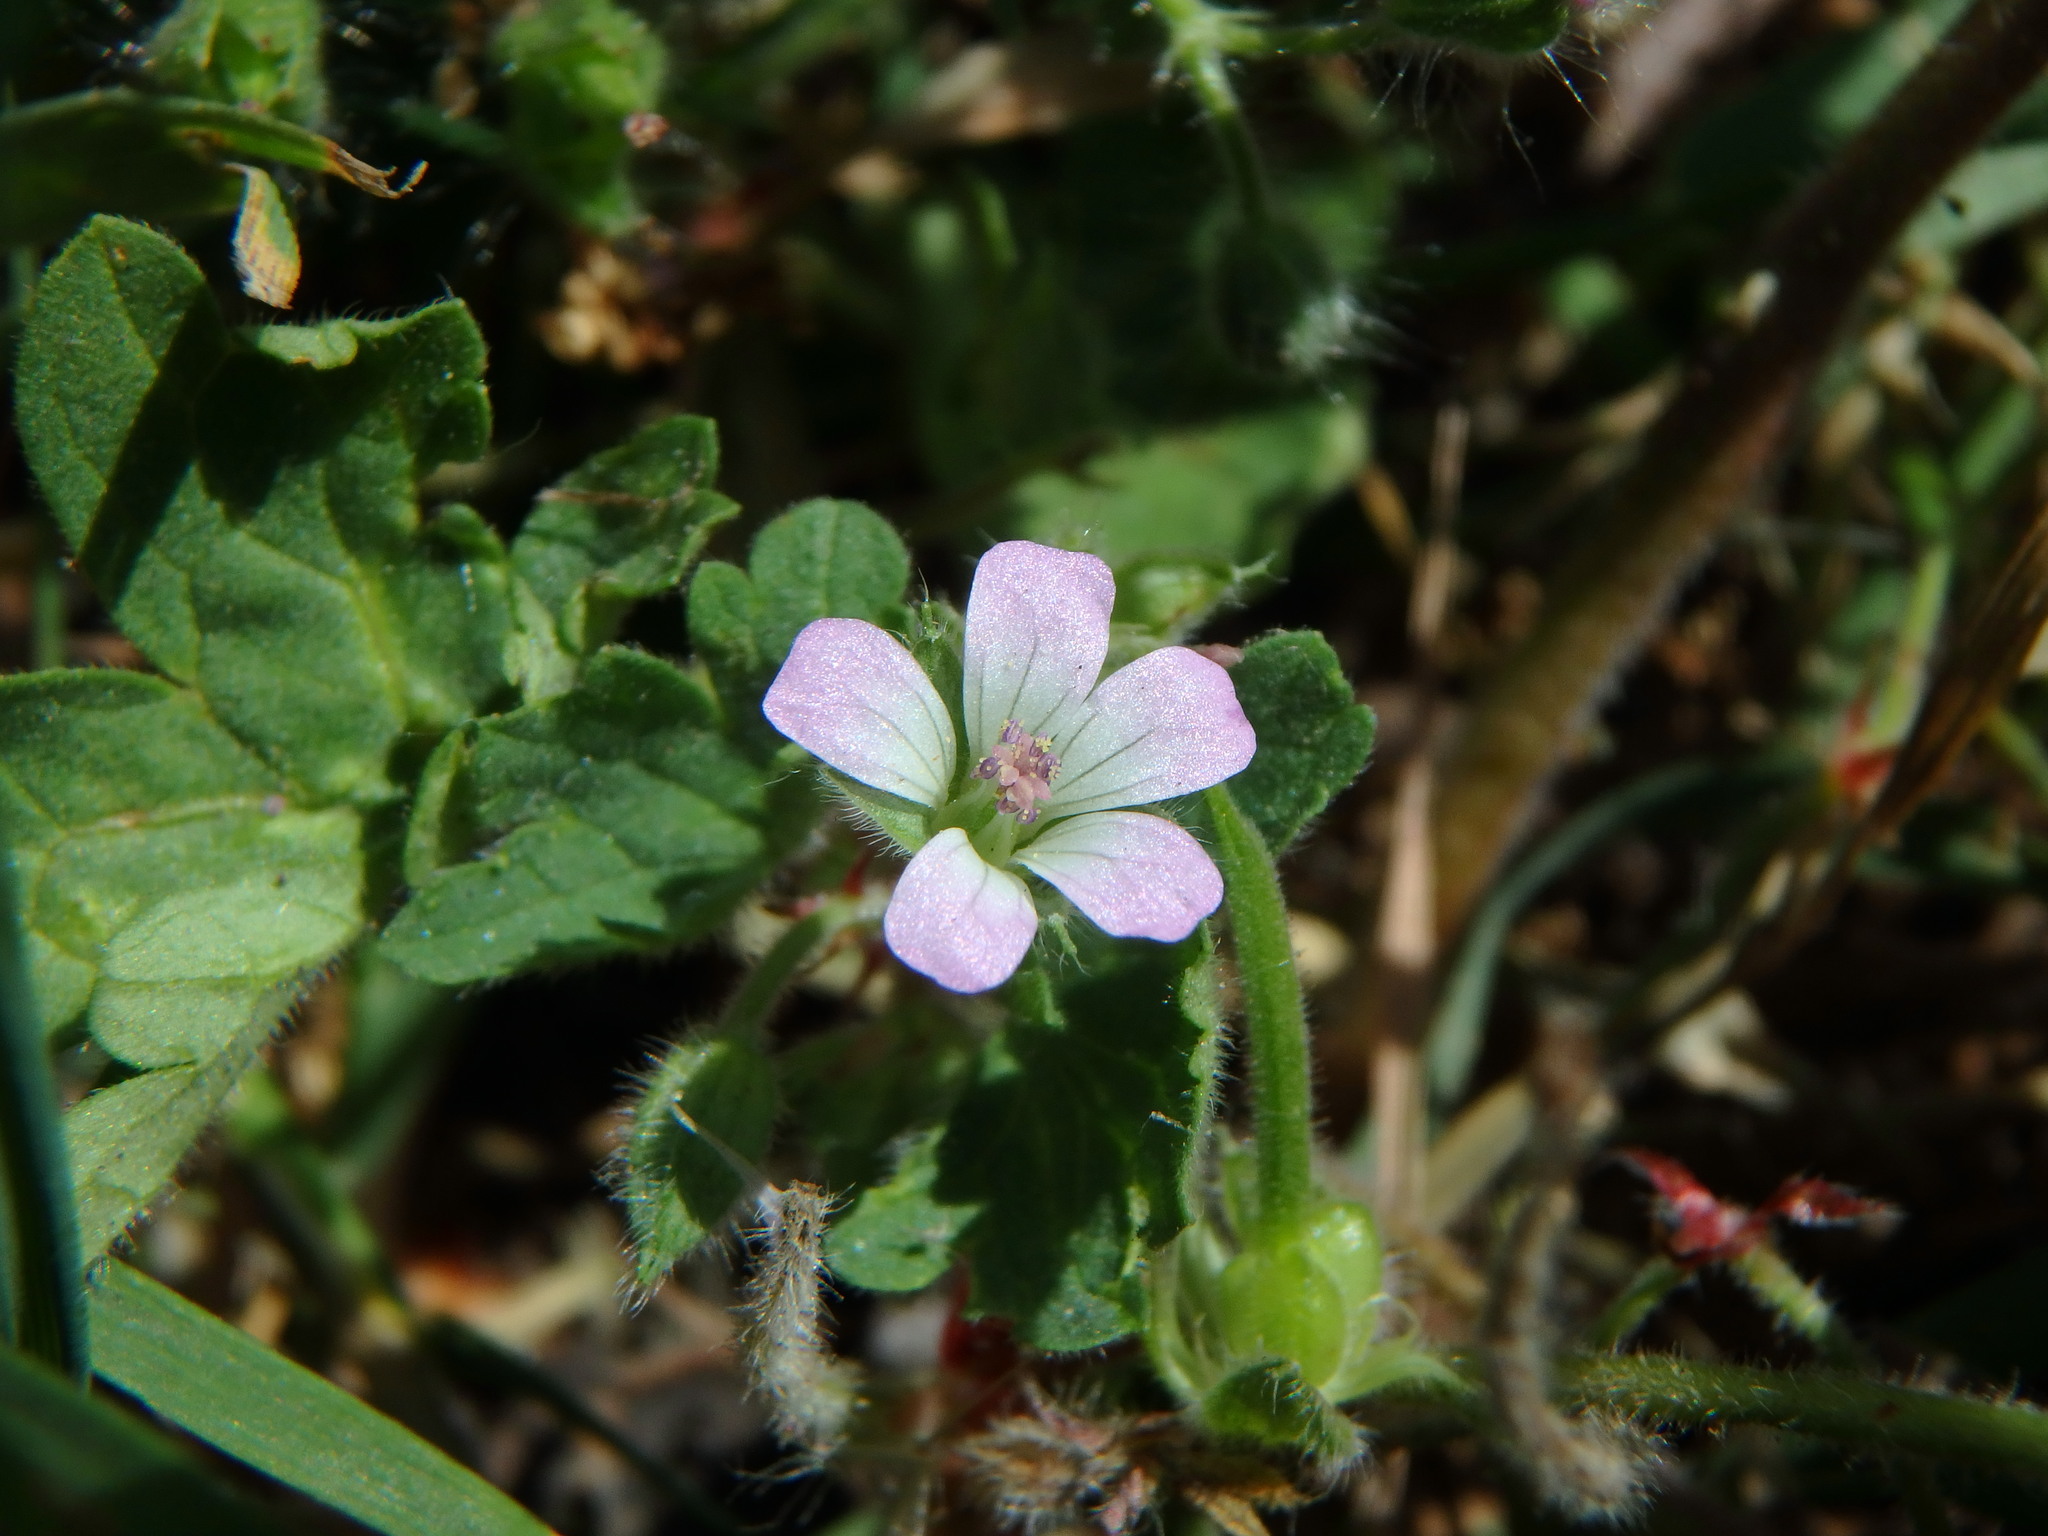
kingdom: Plantae
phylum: Tracheophyta
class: Magnoliopsida
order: Geraniales
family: Geraniaceae
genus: Geranium
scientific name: Geranium rotundifolium
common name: Round-leaved crane's-bill
